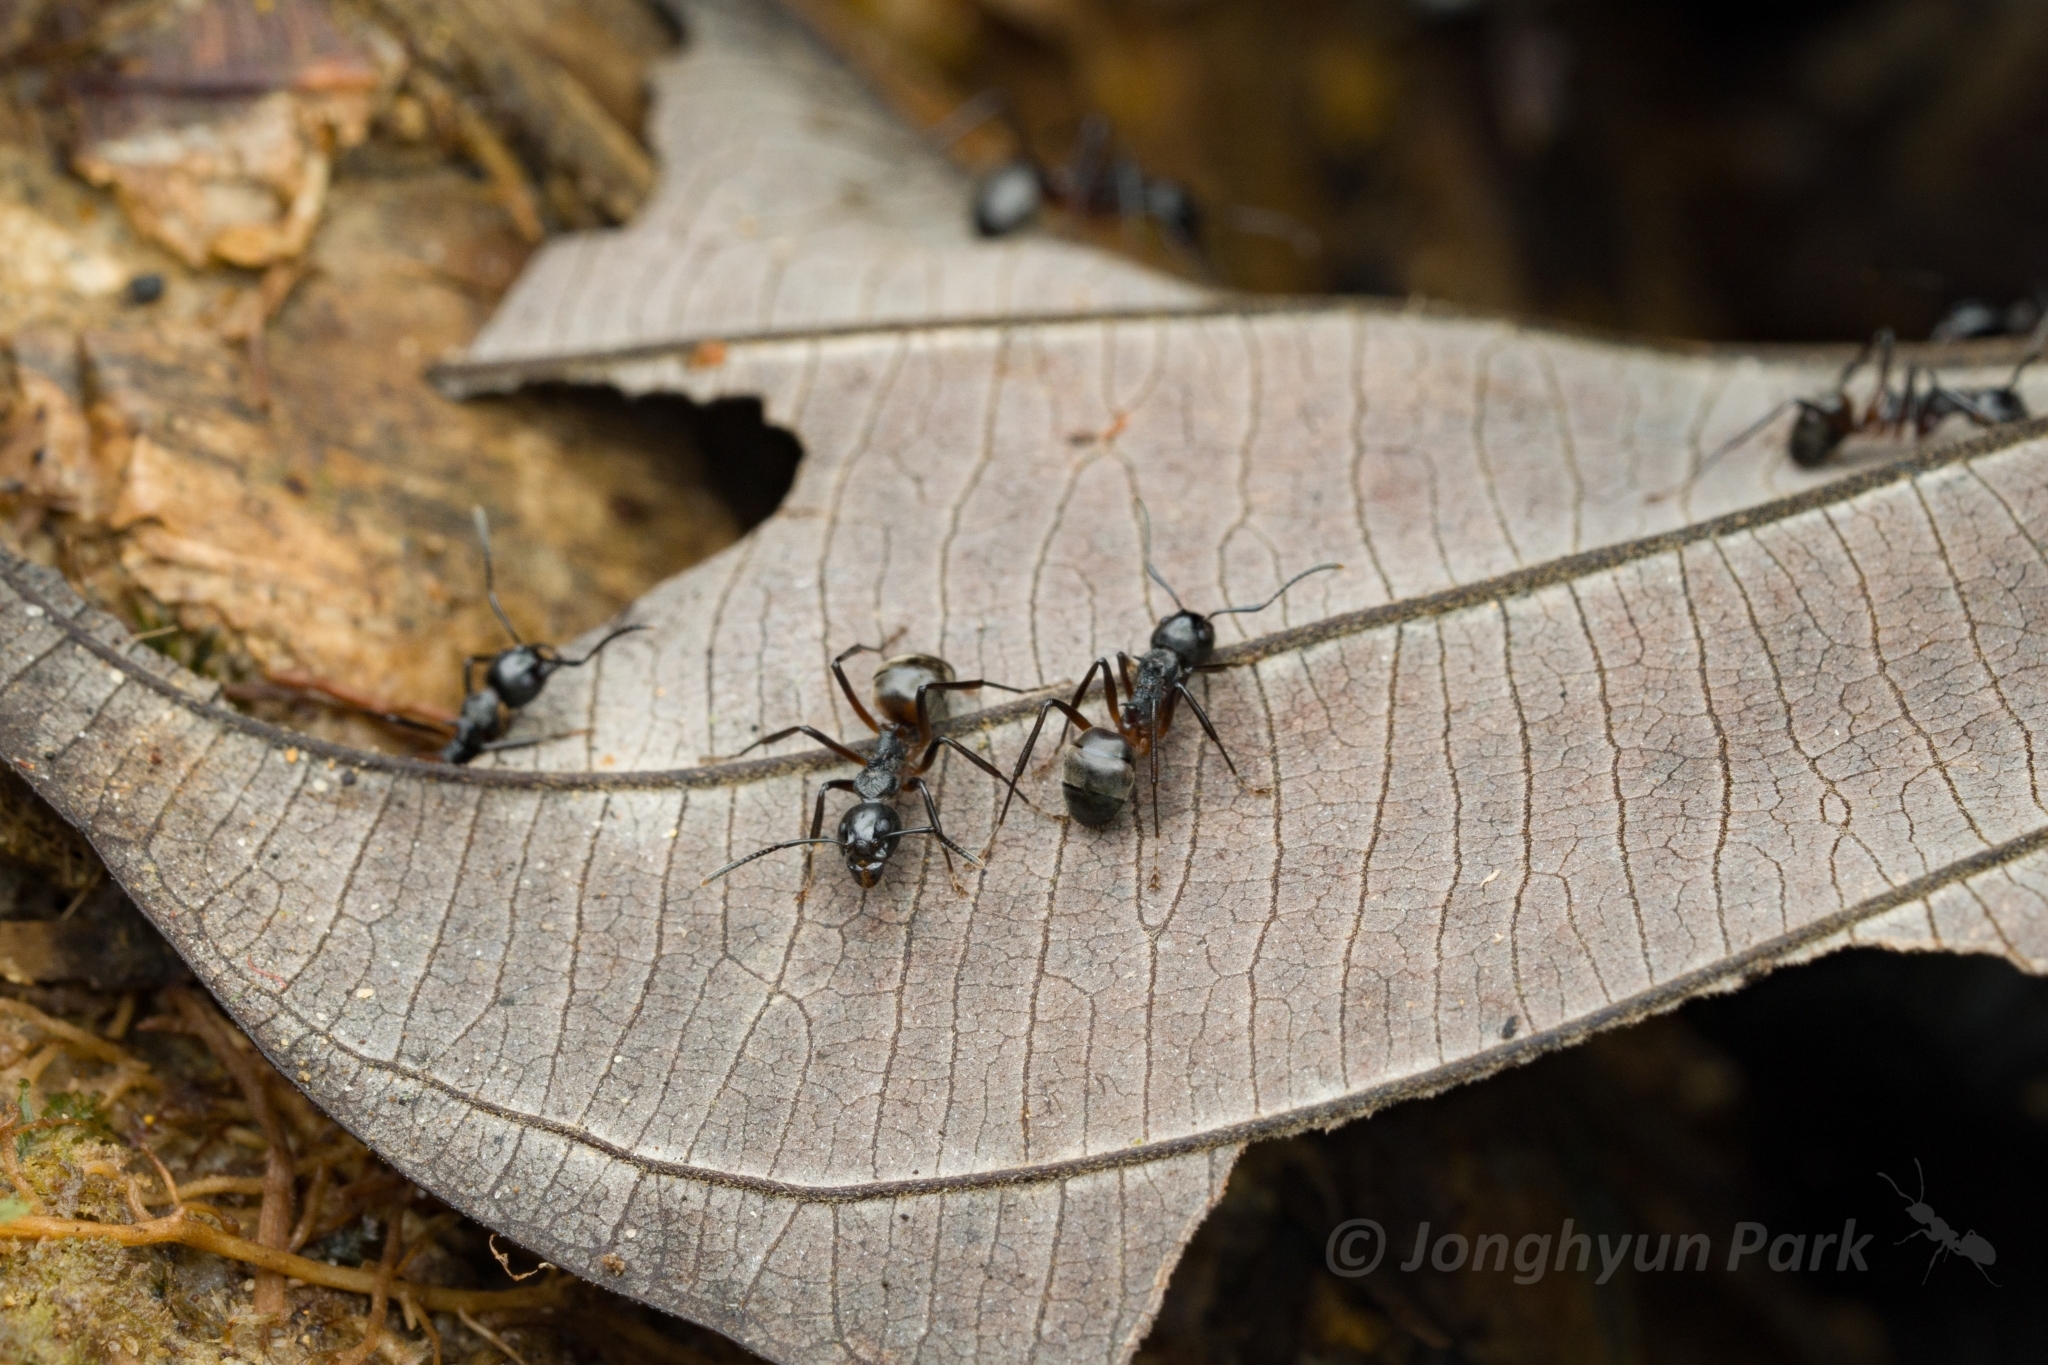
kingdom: Animalia
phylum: Arthropoda
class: Insecta
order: Hymenoptera
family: Formicidae
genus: Dolichoderus
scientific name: Dolichoderus cuspidatus
